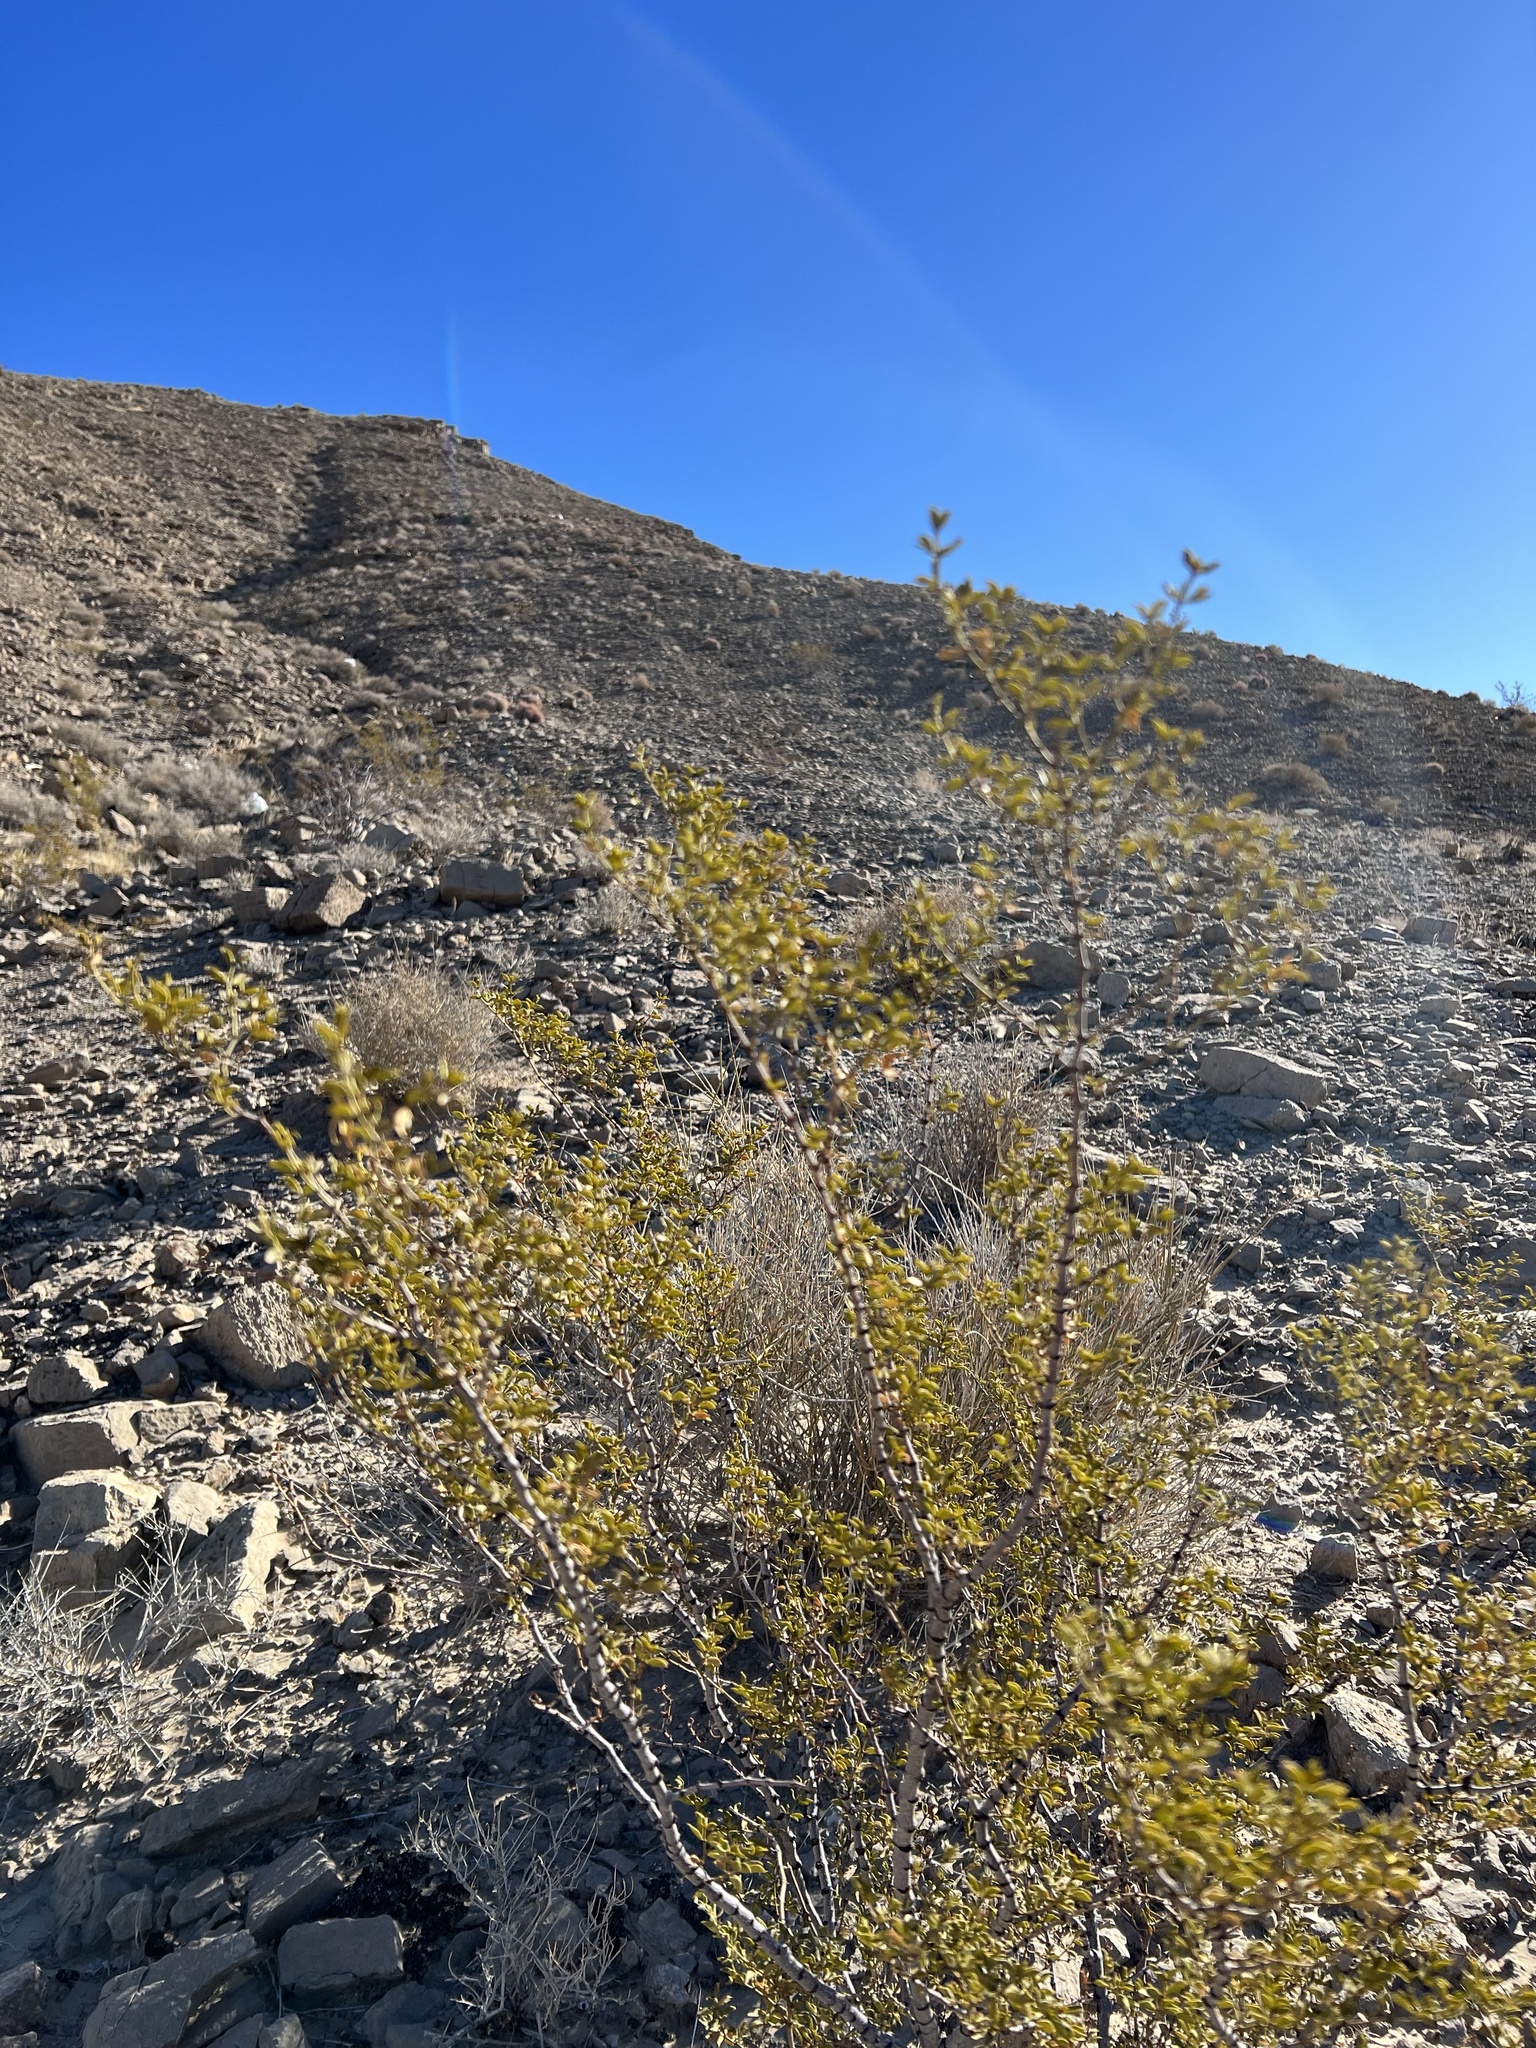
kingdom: Plantae
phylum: Tracheophyta
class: Magnoliopsida
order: Zygophyllales
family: Zygophyllaceae
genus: Larrea
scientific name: Larrea tridentata
